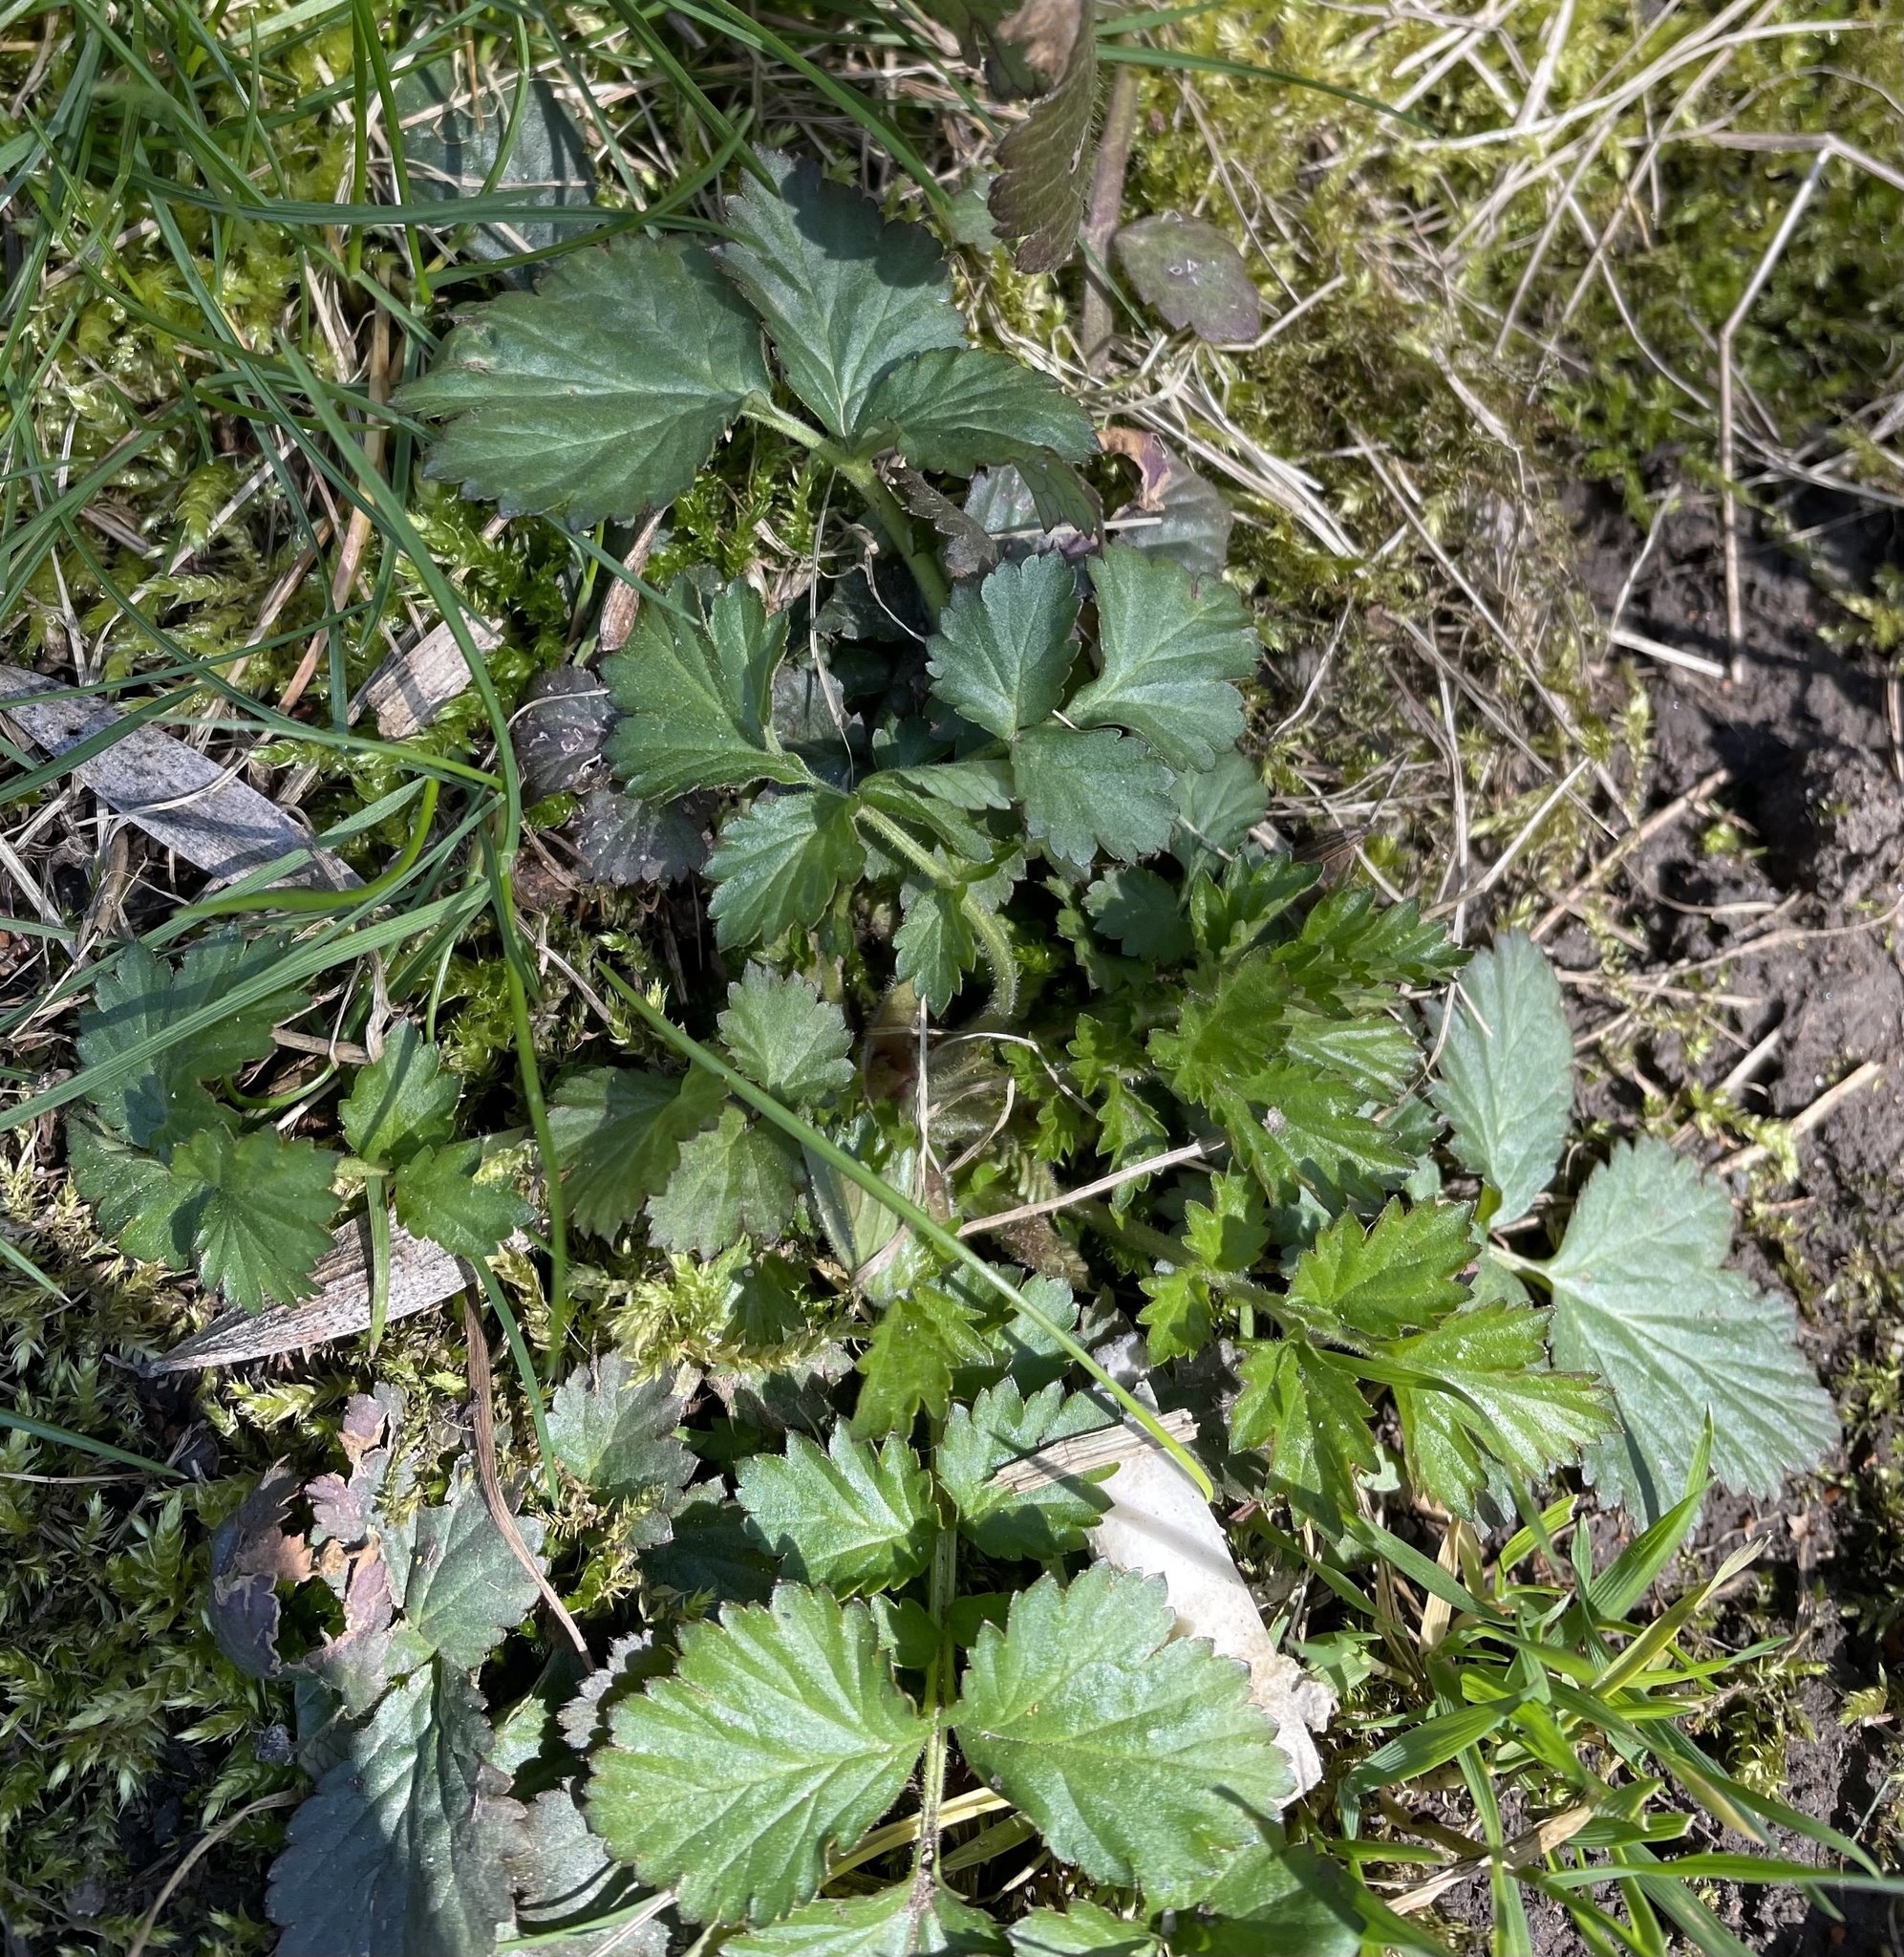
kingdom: Plantae
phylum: Tracheophyta
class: Magnoliopsida
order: Rosales
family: Rosaceae
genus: Geum
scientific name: Geum urbanum
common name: Wood avens
